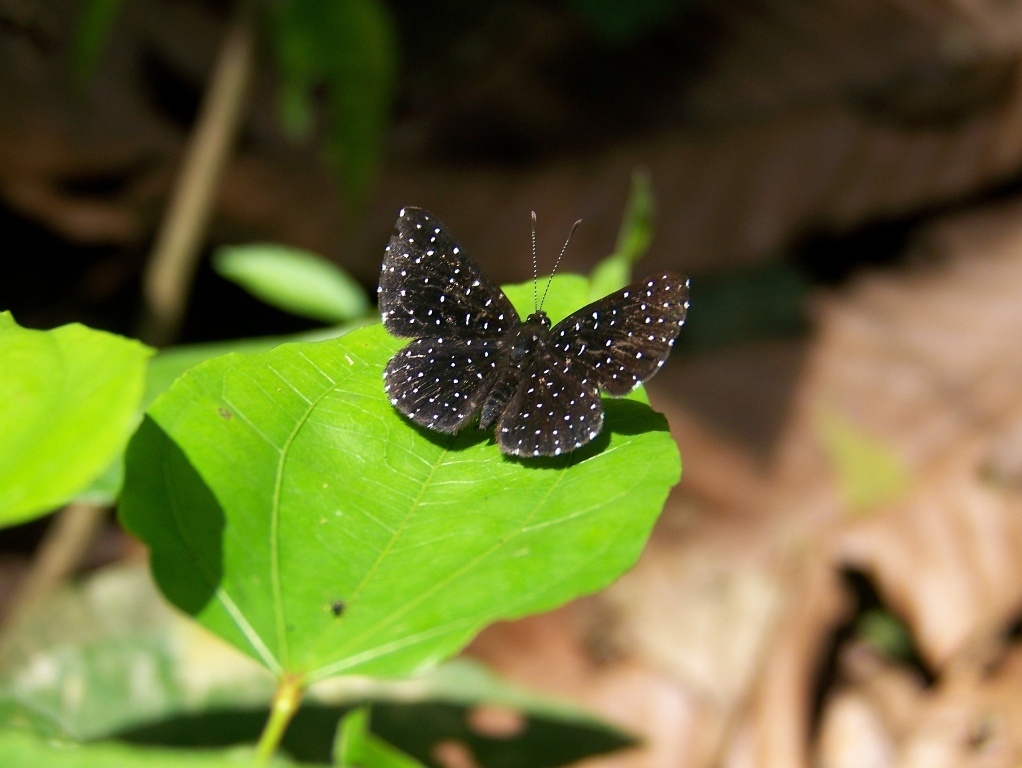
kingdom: Animalia
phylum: Arthropoda
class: Insecta
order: Lepidoptera
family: Riodinidae
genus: Echydna
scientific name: Echydna punctata
